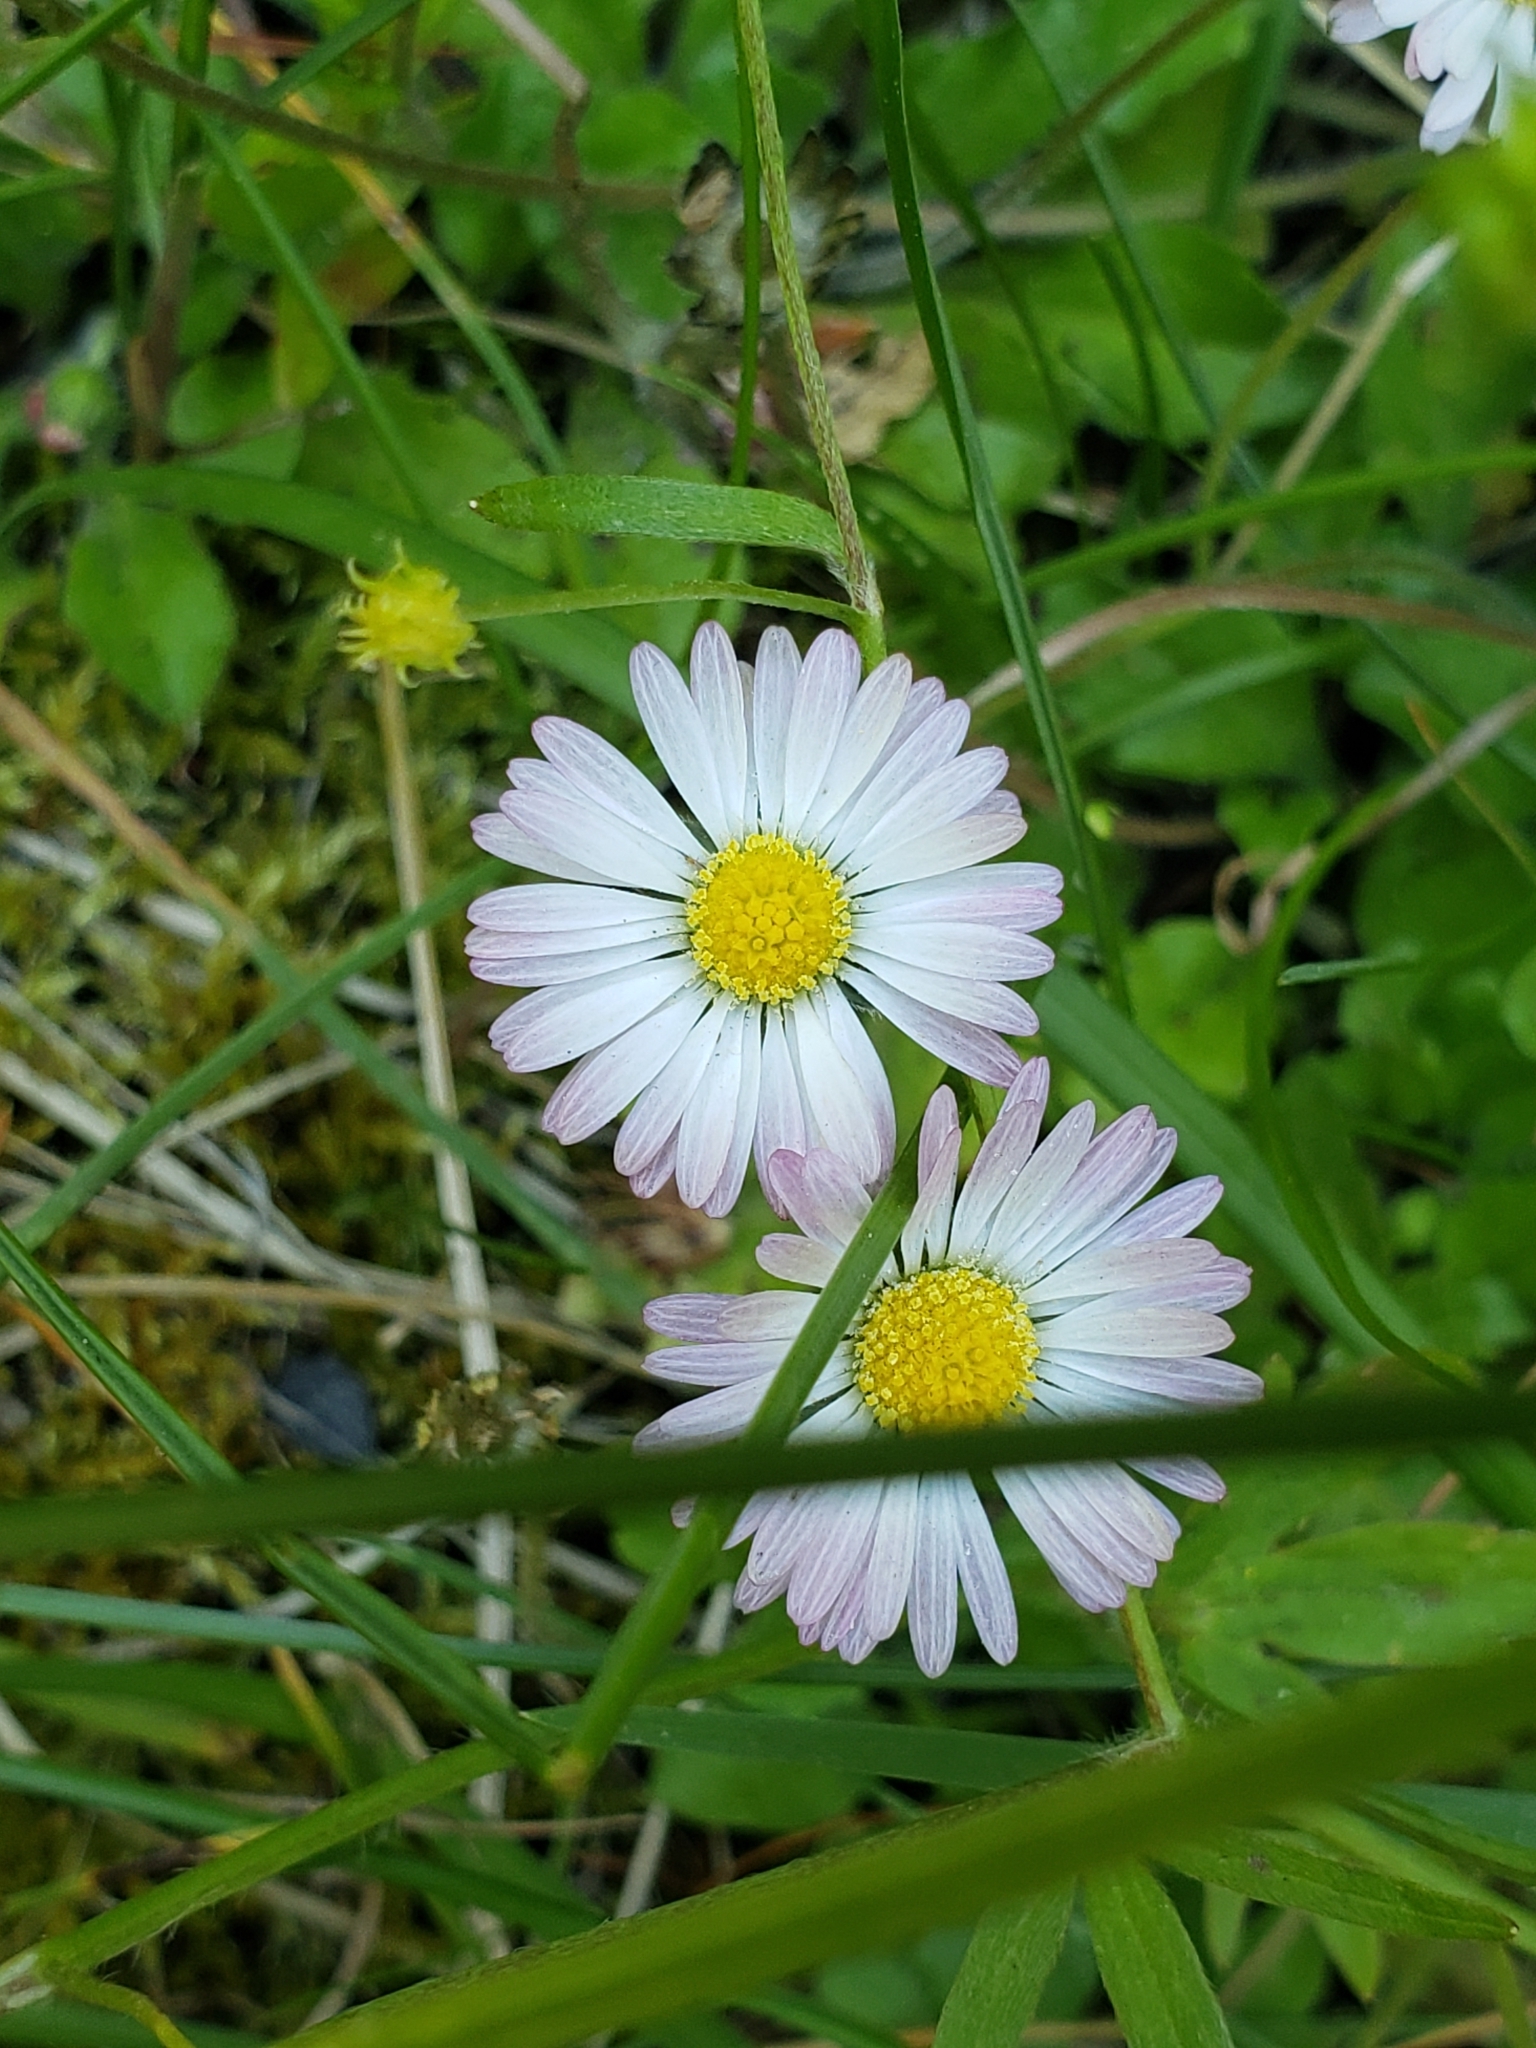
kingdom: Plantae
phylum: Tracheophyta
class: Magnoliopsida
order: Asterales
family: Asteraceae
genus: Bellis
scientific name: Bellis perennis
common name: Lawndaisy
